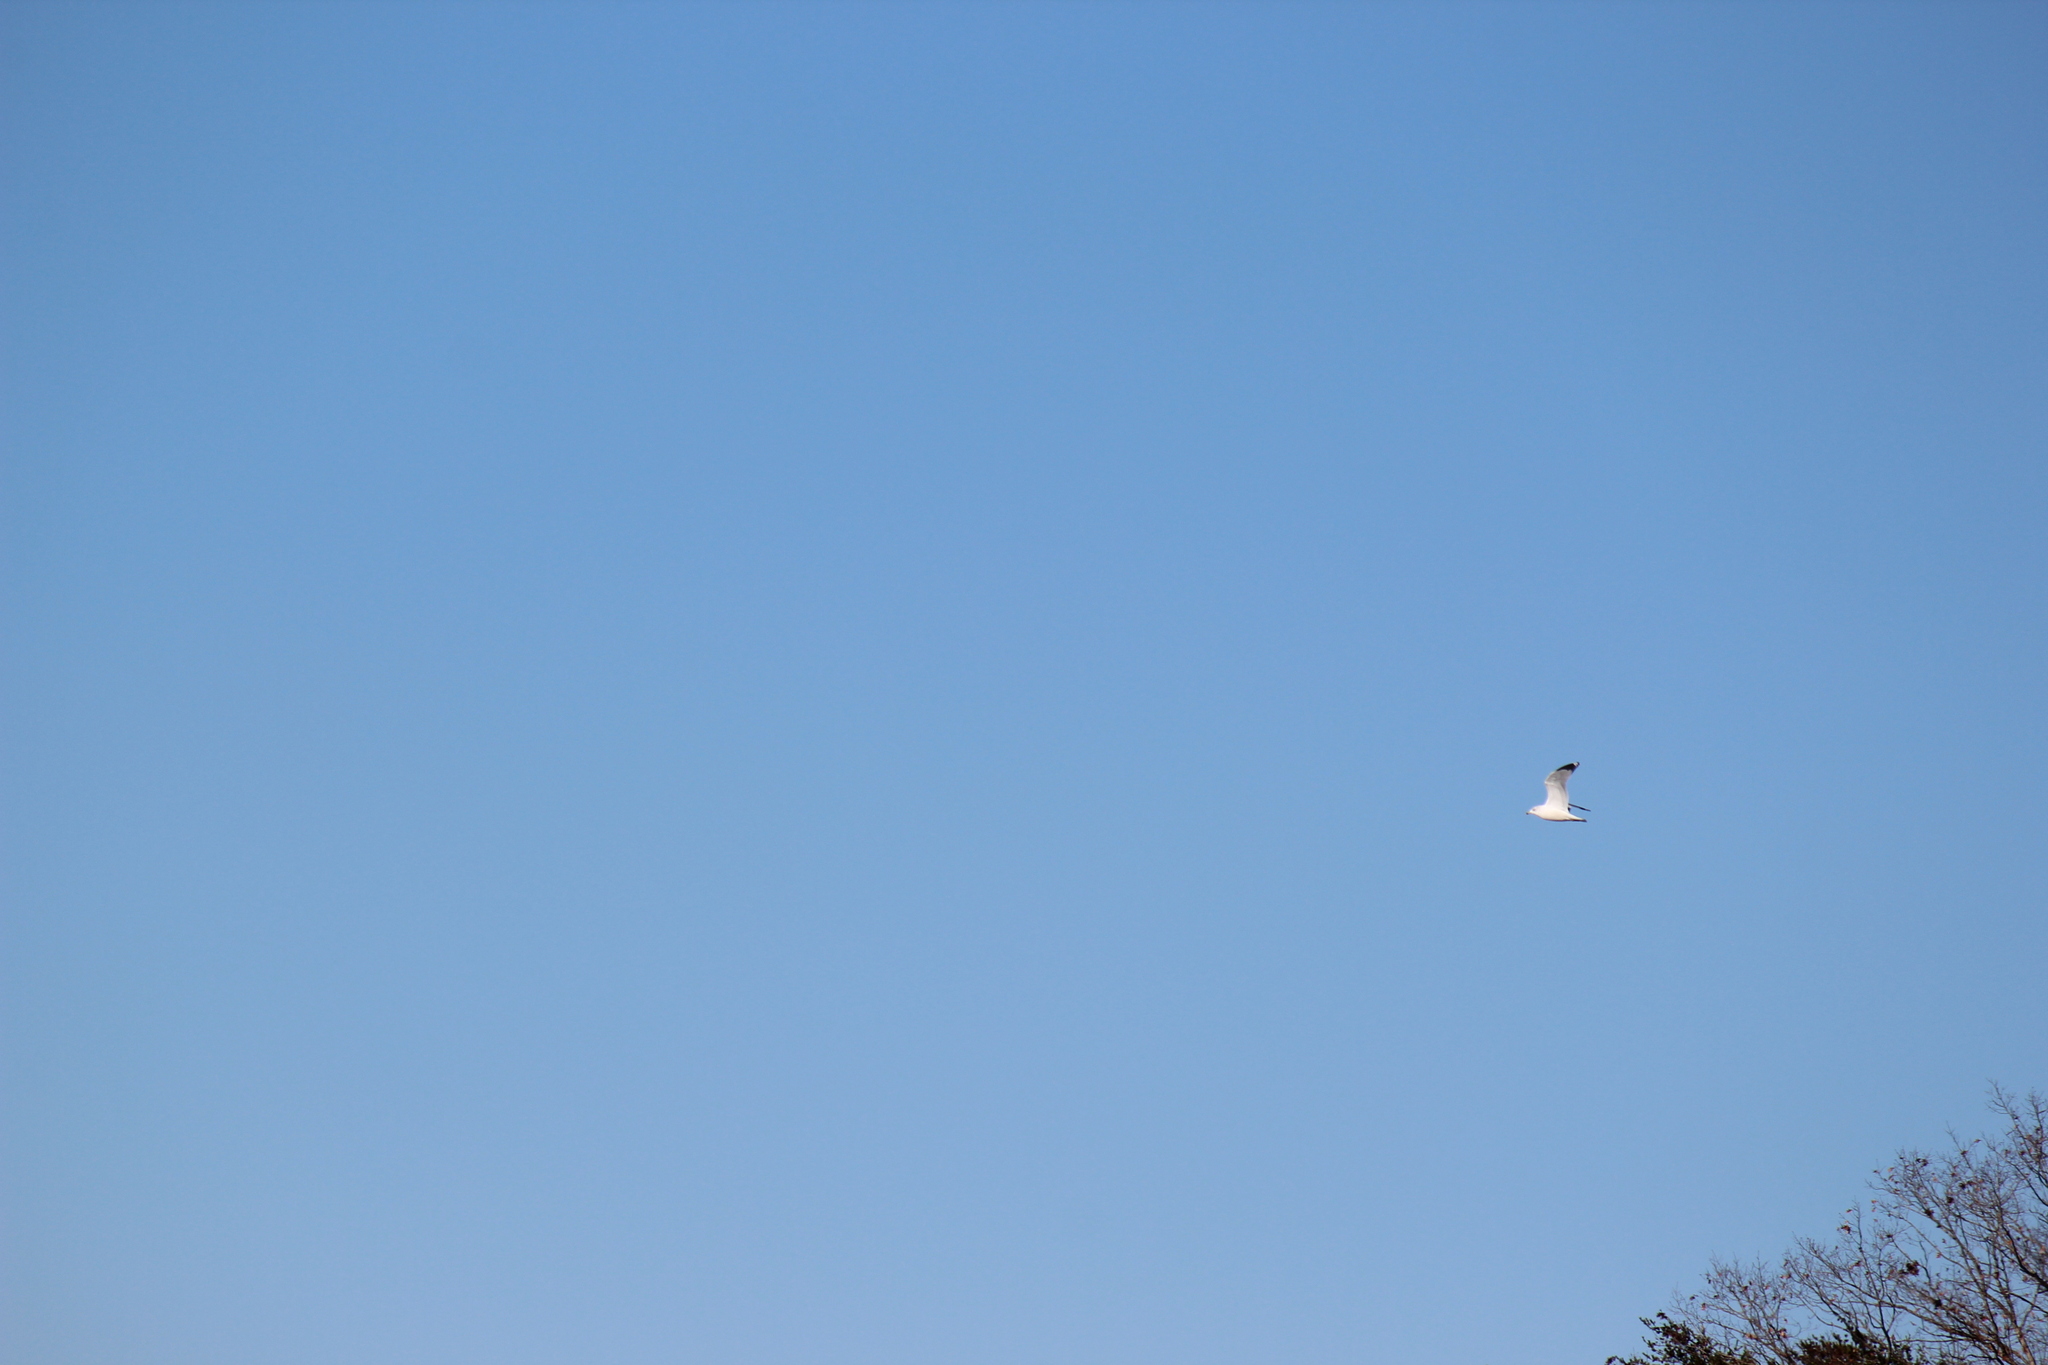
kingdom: Animalia
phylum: Chordata
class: Aves
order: Charadriiformes
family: Laridae
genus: Larus
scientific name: Larus delawarensis
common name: Ring-billed gull
